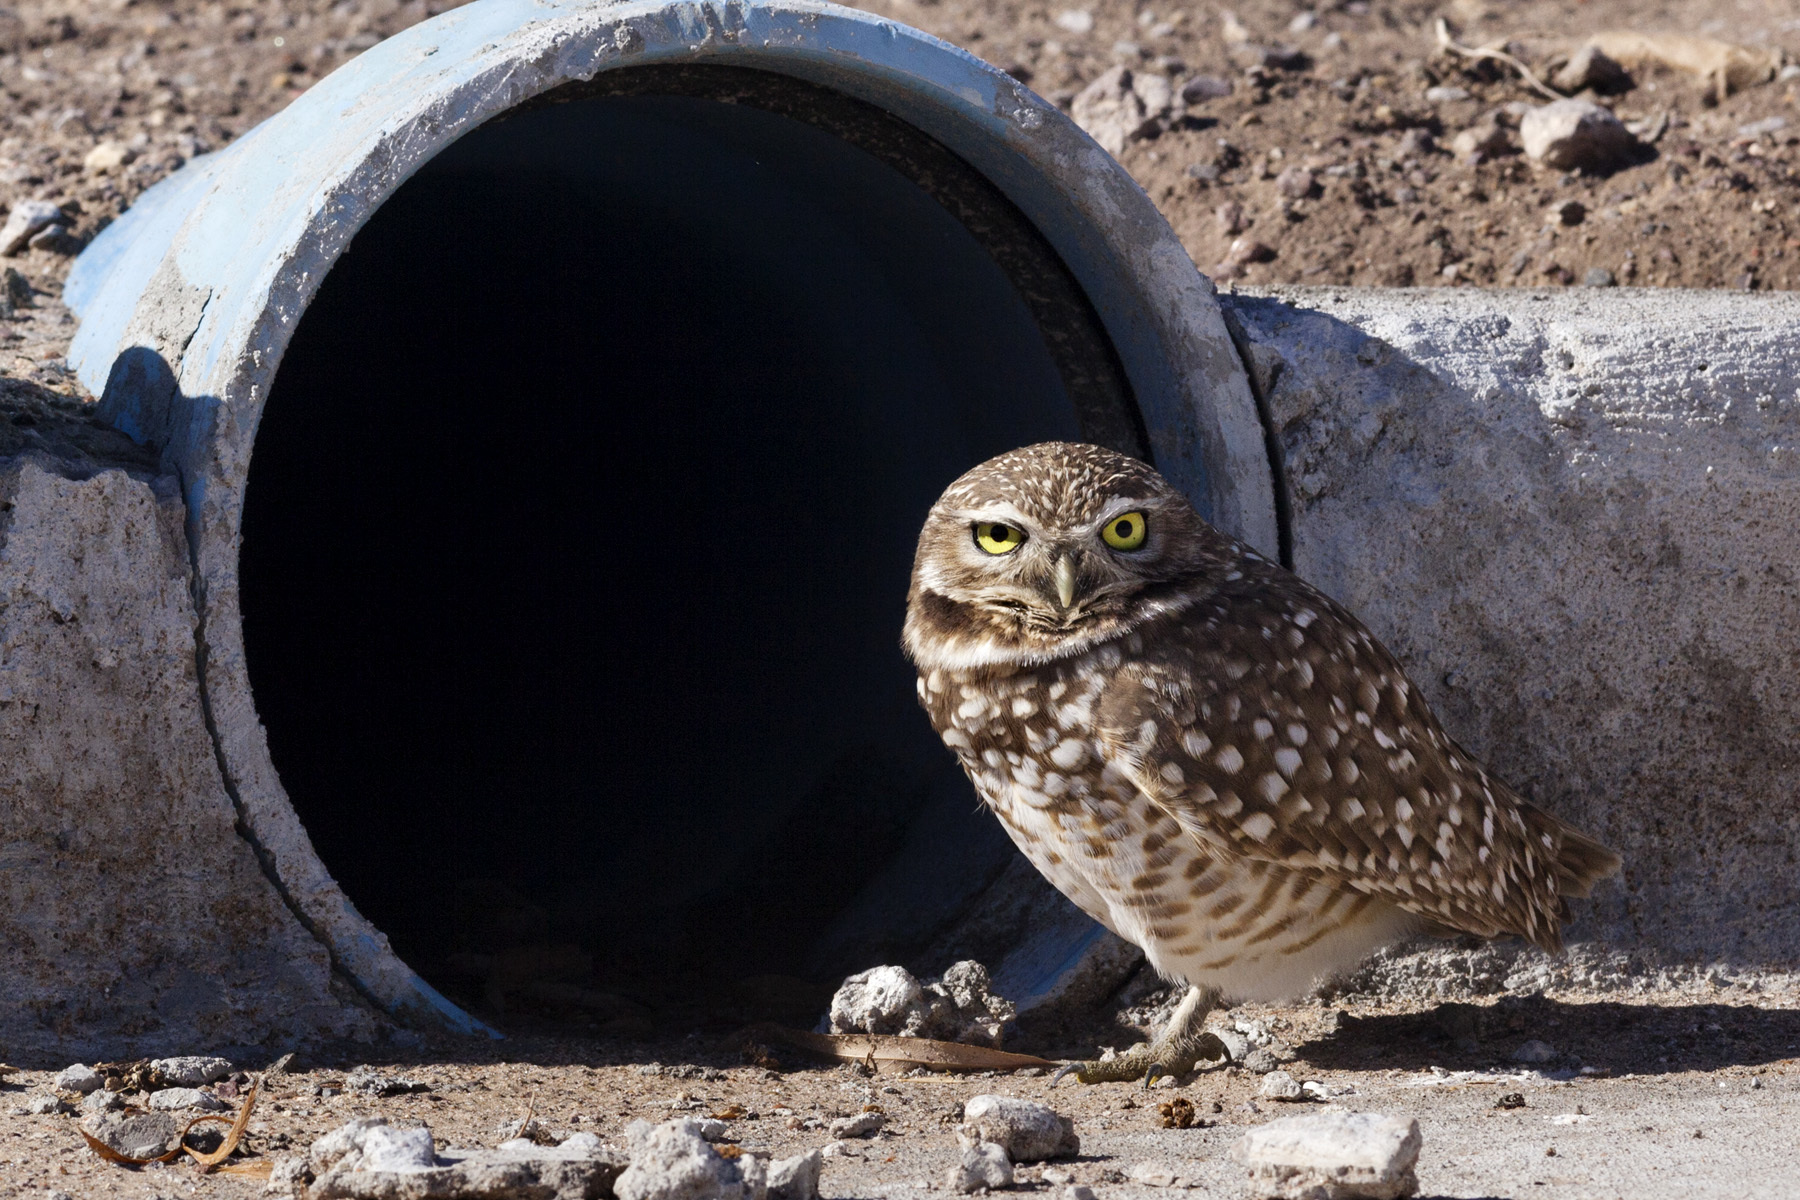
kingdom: Animalia
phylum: Chordata
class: Aves
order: Strigiformes
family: Strigidae
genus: Athene
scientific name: Athene cunicularia
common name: Burrowing owl
